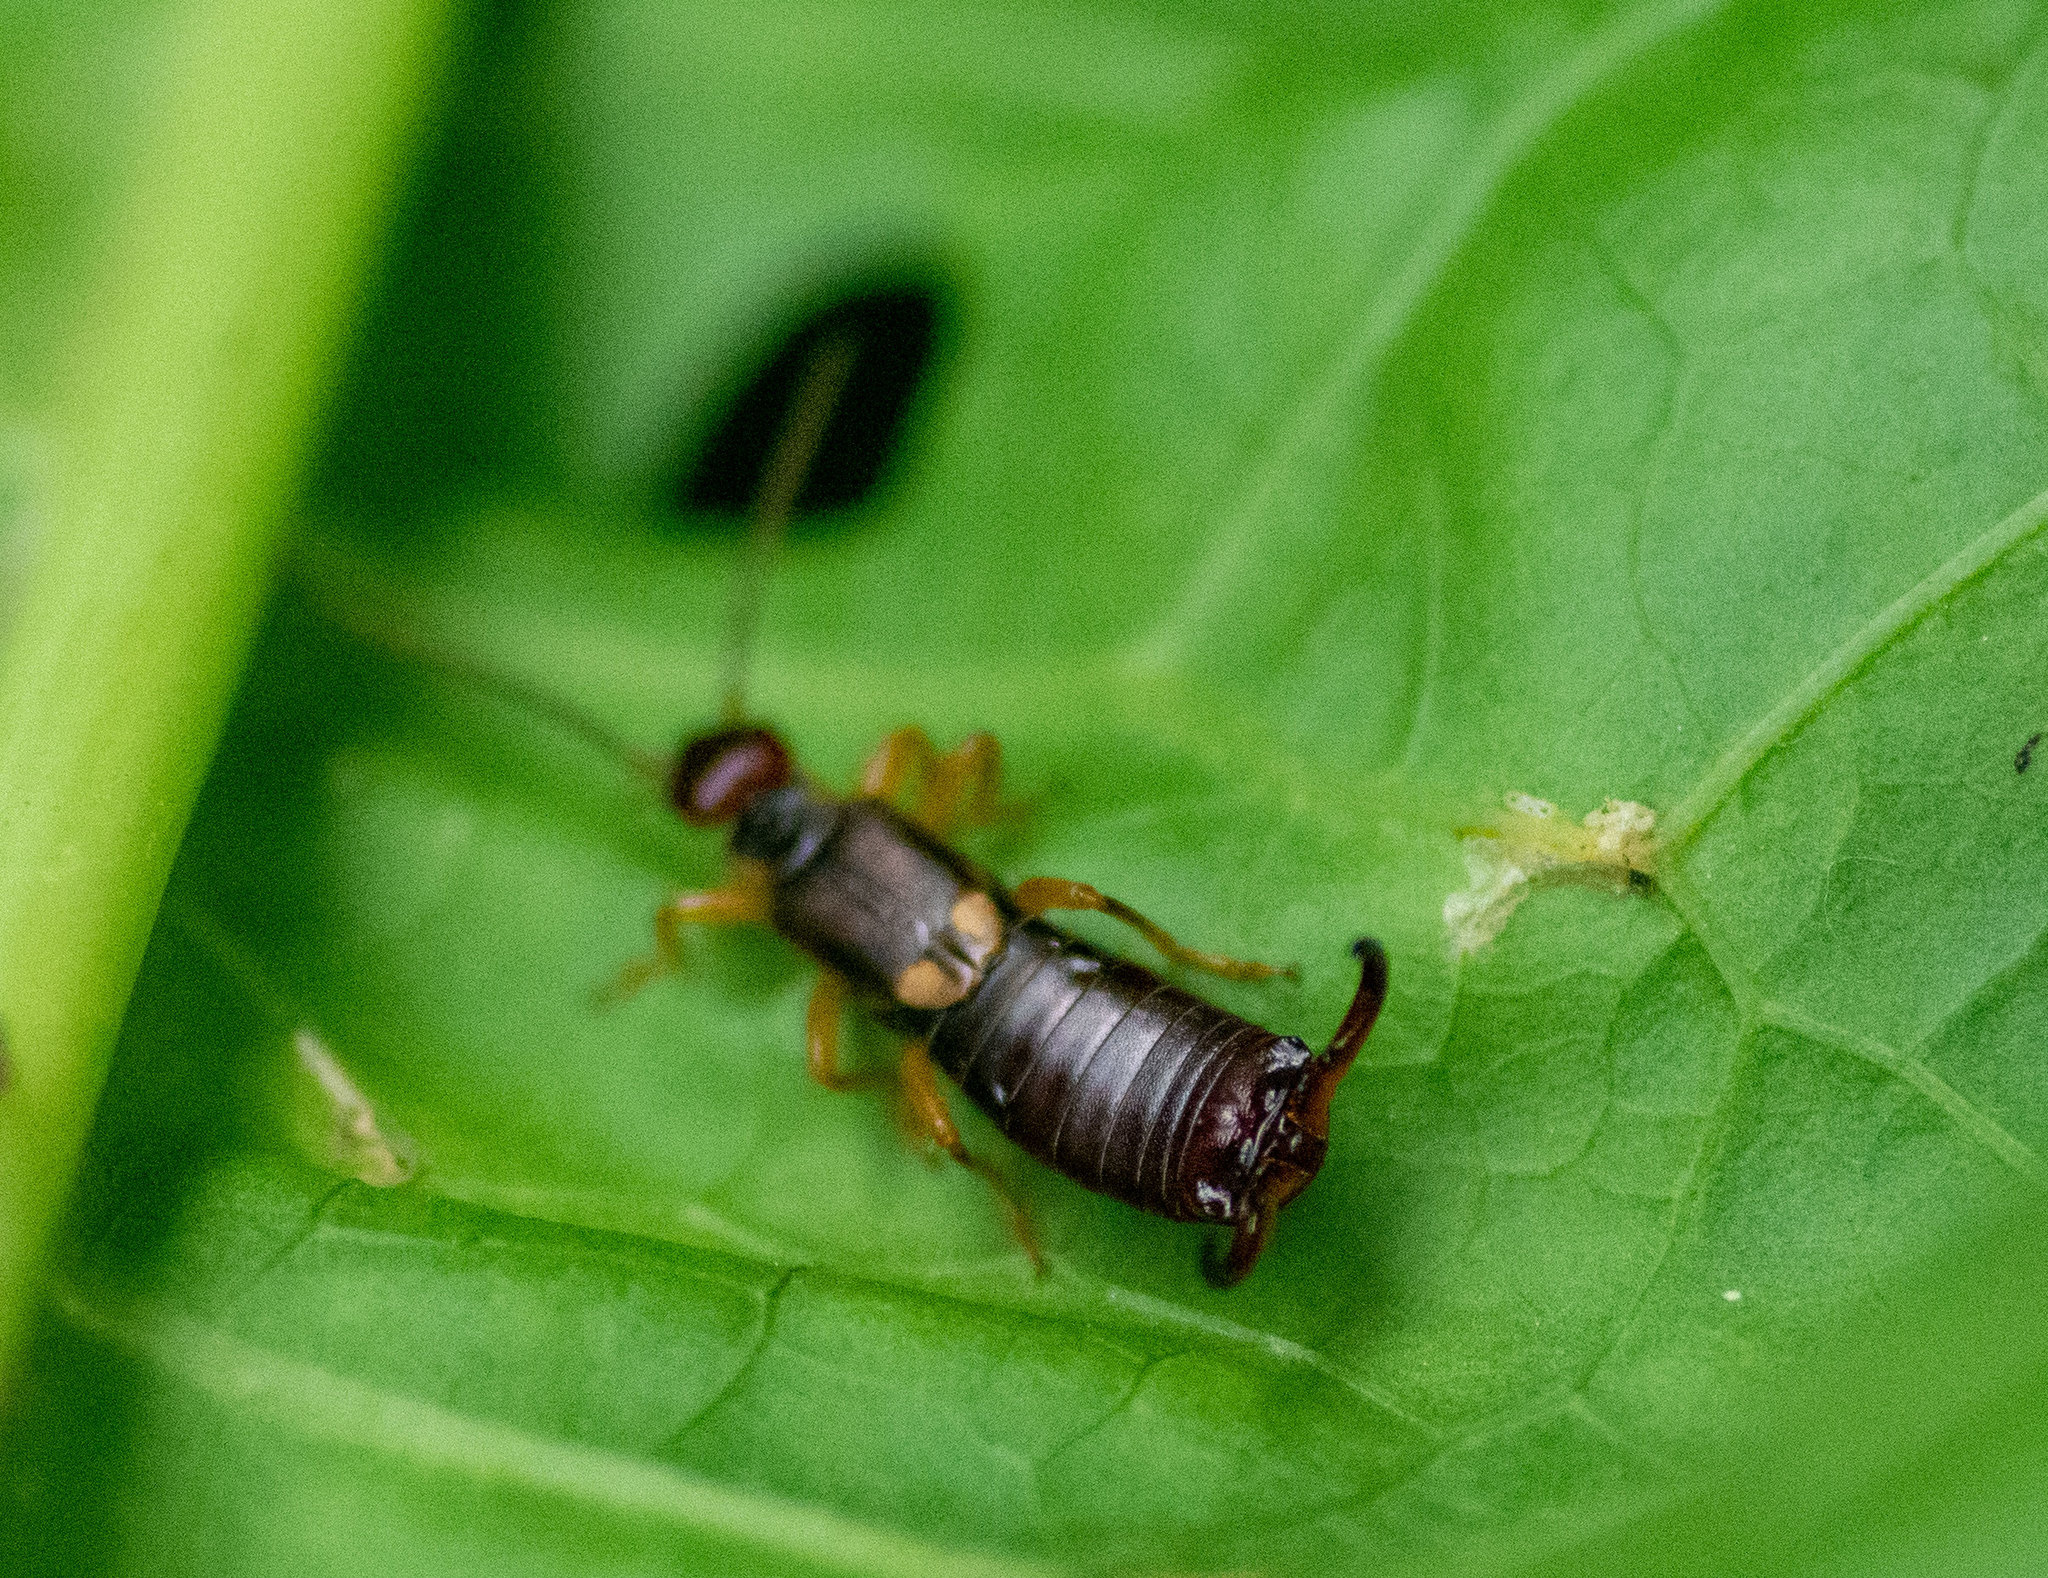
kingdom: Animalia
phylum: Arthropoda
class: Insecta
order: Dermaptera
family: Forficulidae
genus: Forficula
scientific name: Forficula
